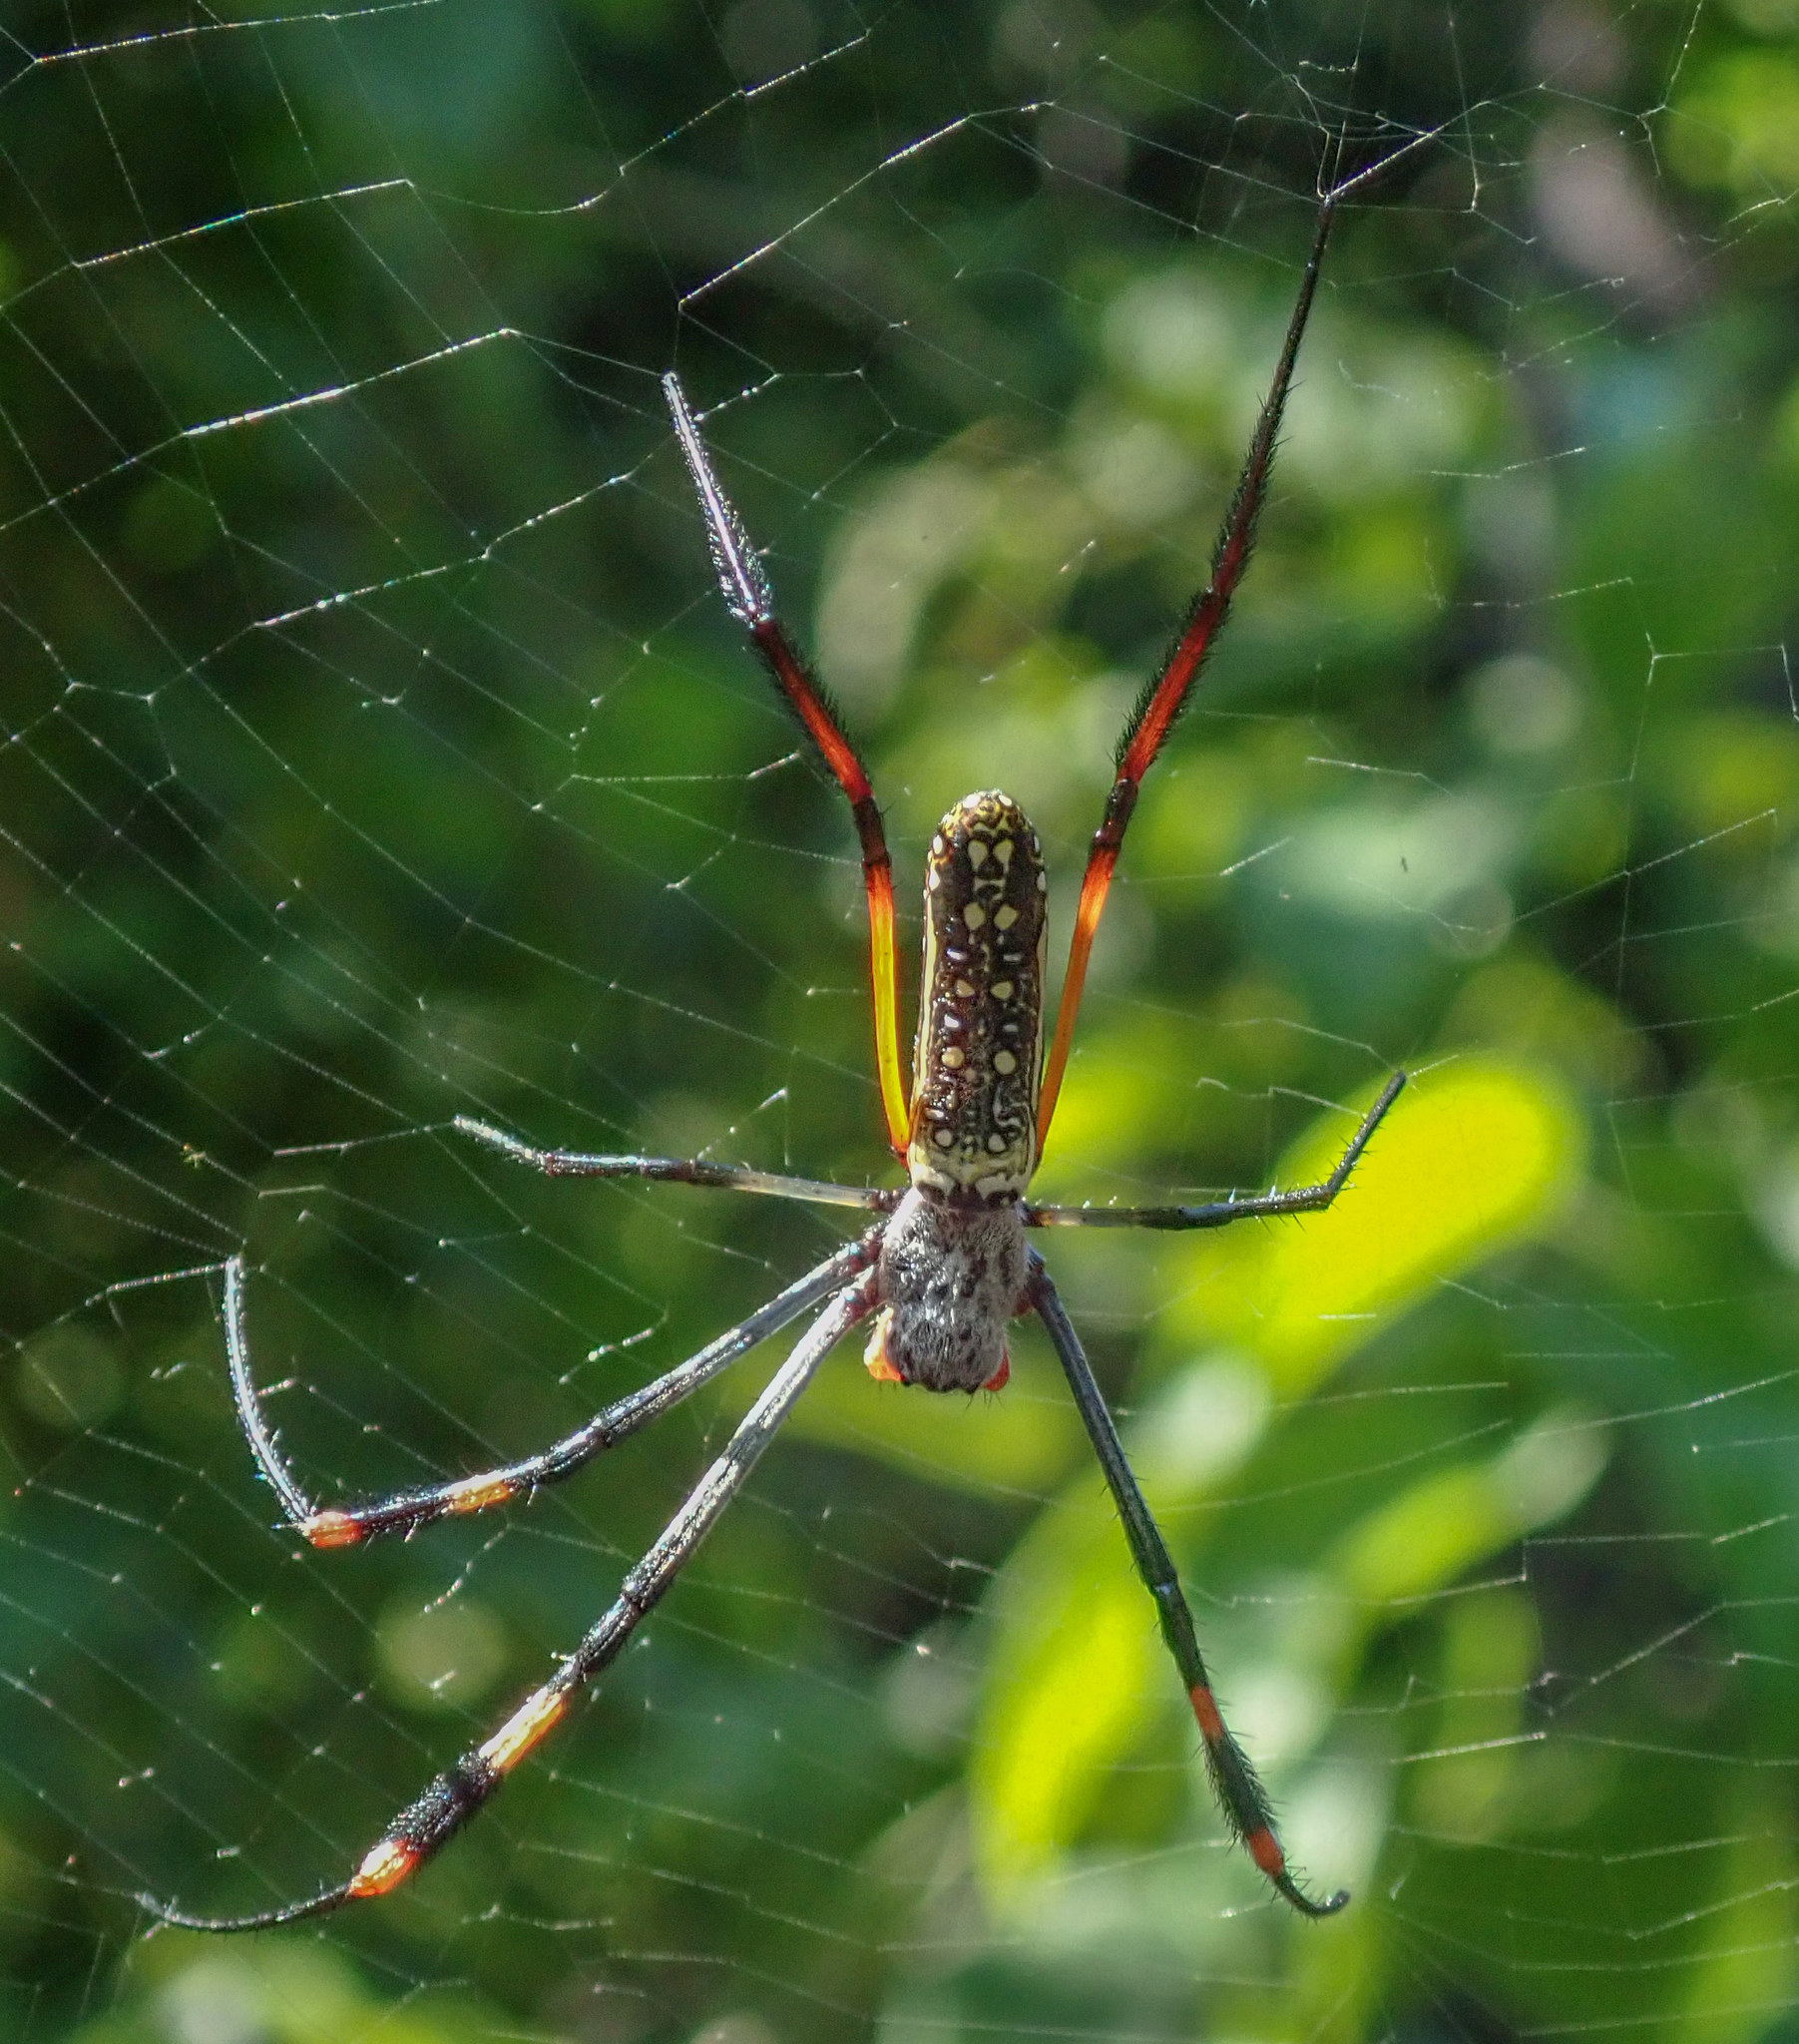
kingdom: Animalia
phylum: Arthropoda
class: Arachnida
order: Araneae
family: Araneidae
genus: Trichonephila
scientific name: Trichonephila inaurata
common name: Red-legged golden orb weaver
